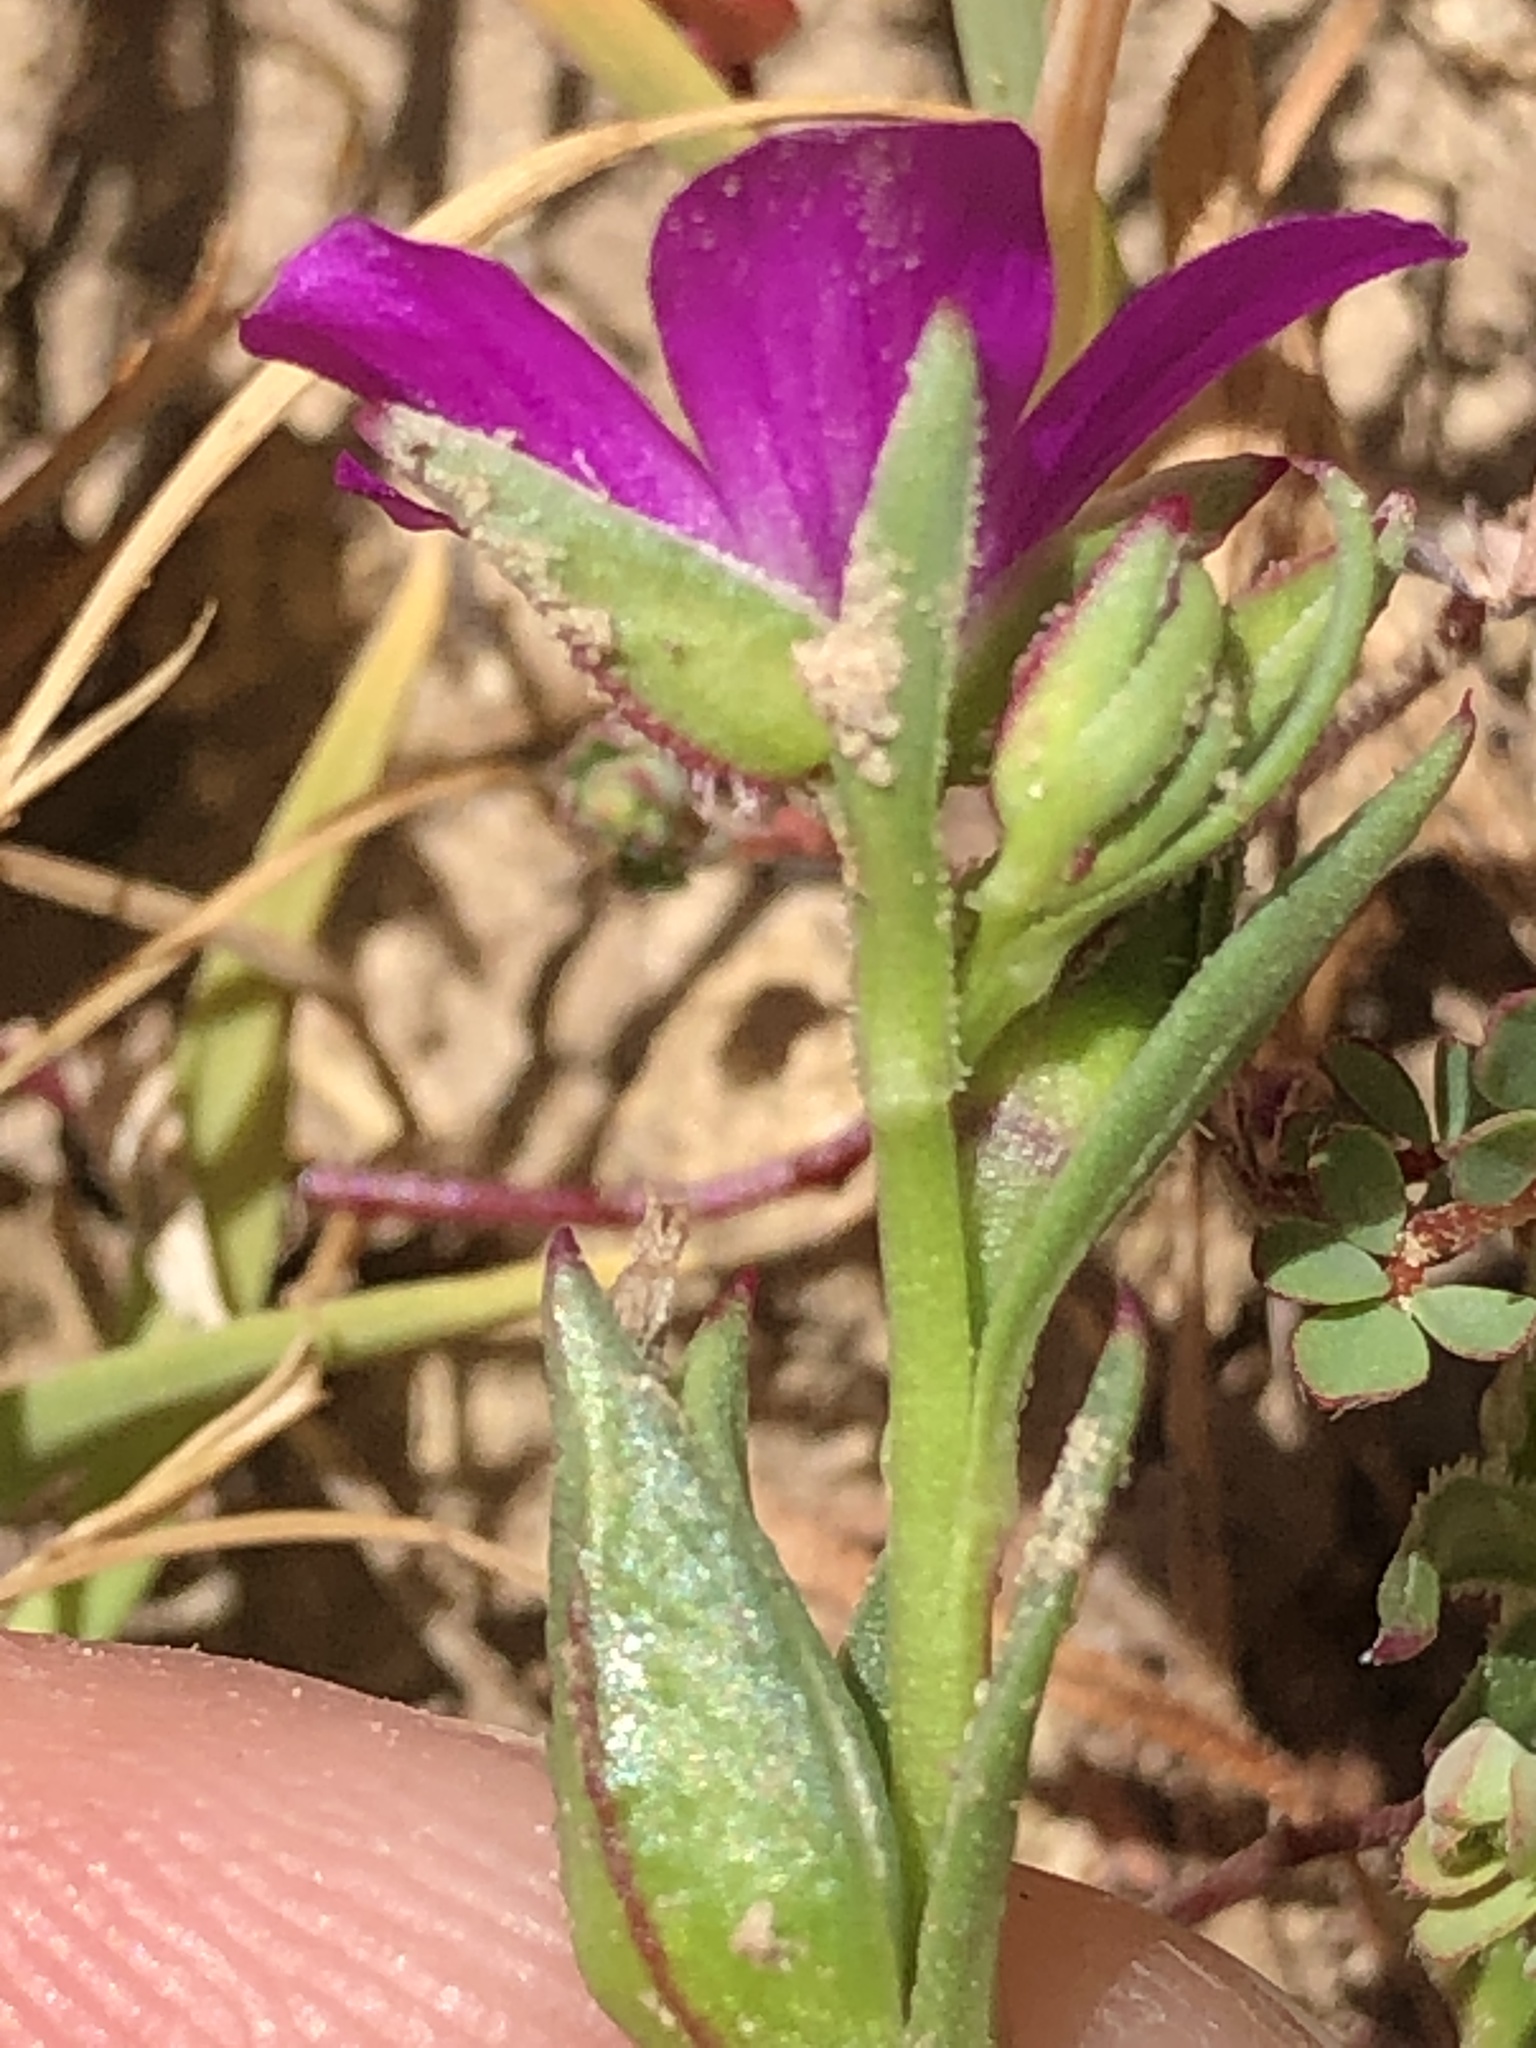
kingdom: Plantae
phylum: Tracheophyta
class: Magnoliopsida
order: Caryophyllales
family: Montiaceae
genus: Calandrinia
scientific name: Calandrinia menziesii
